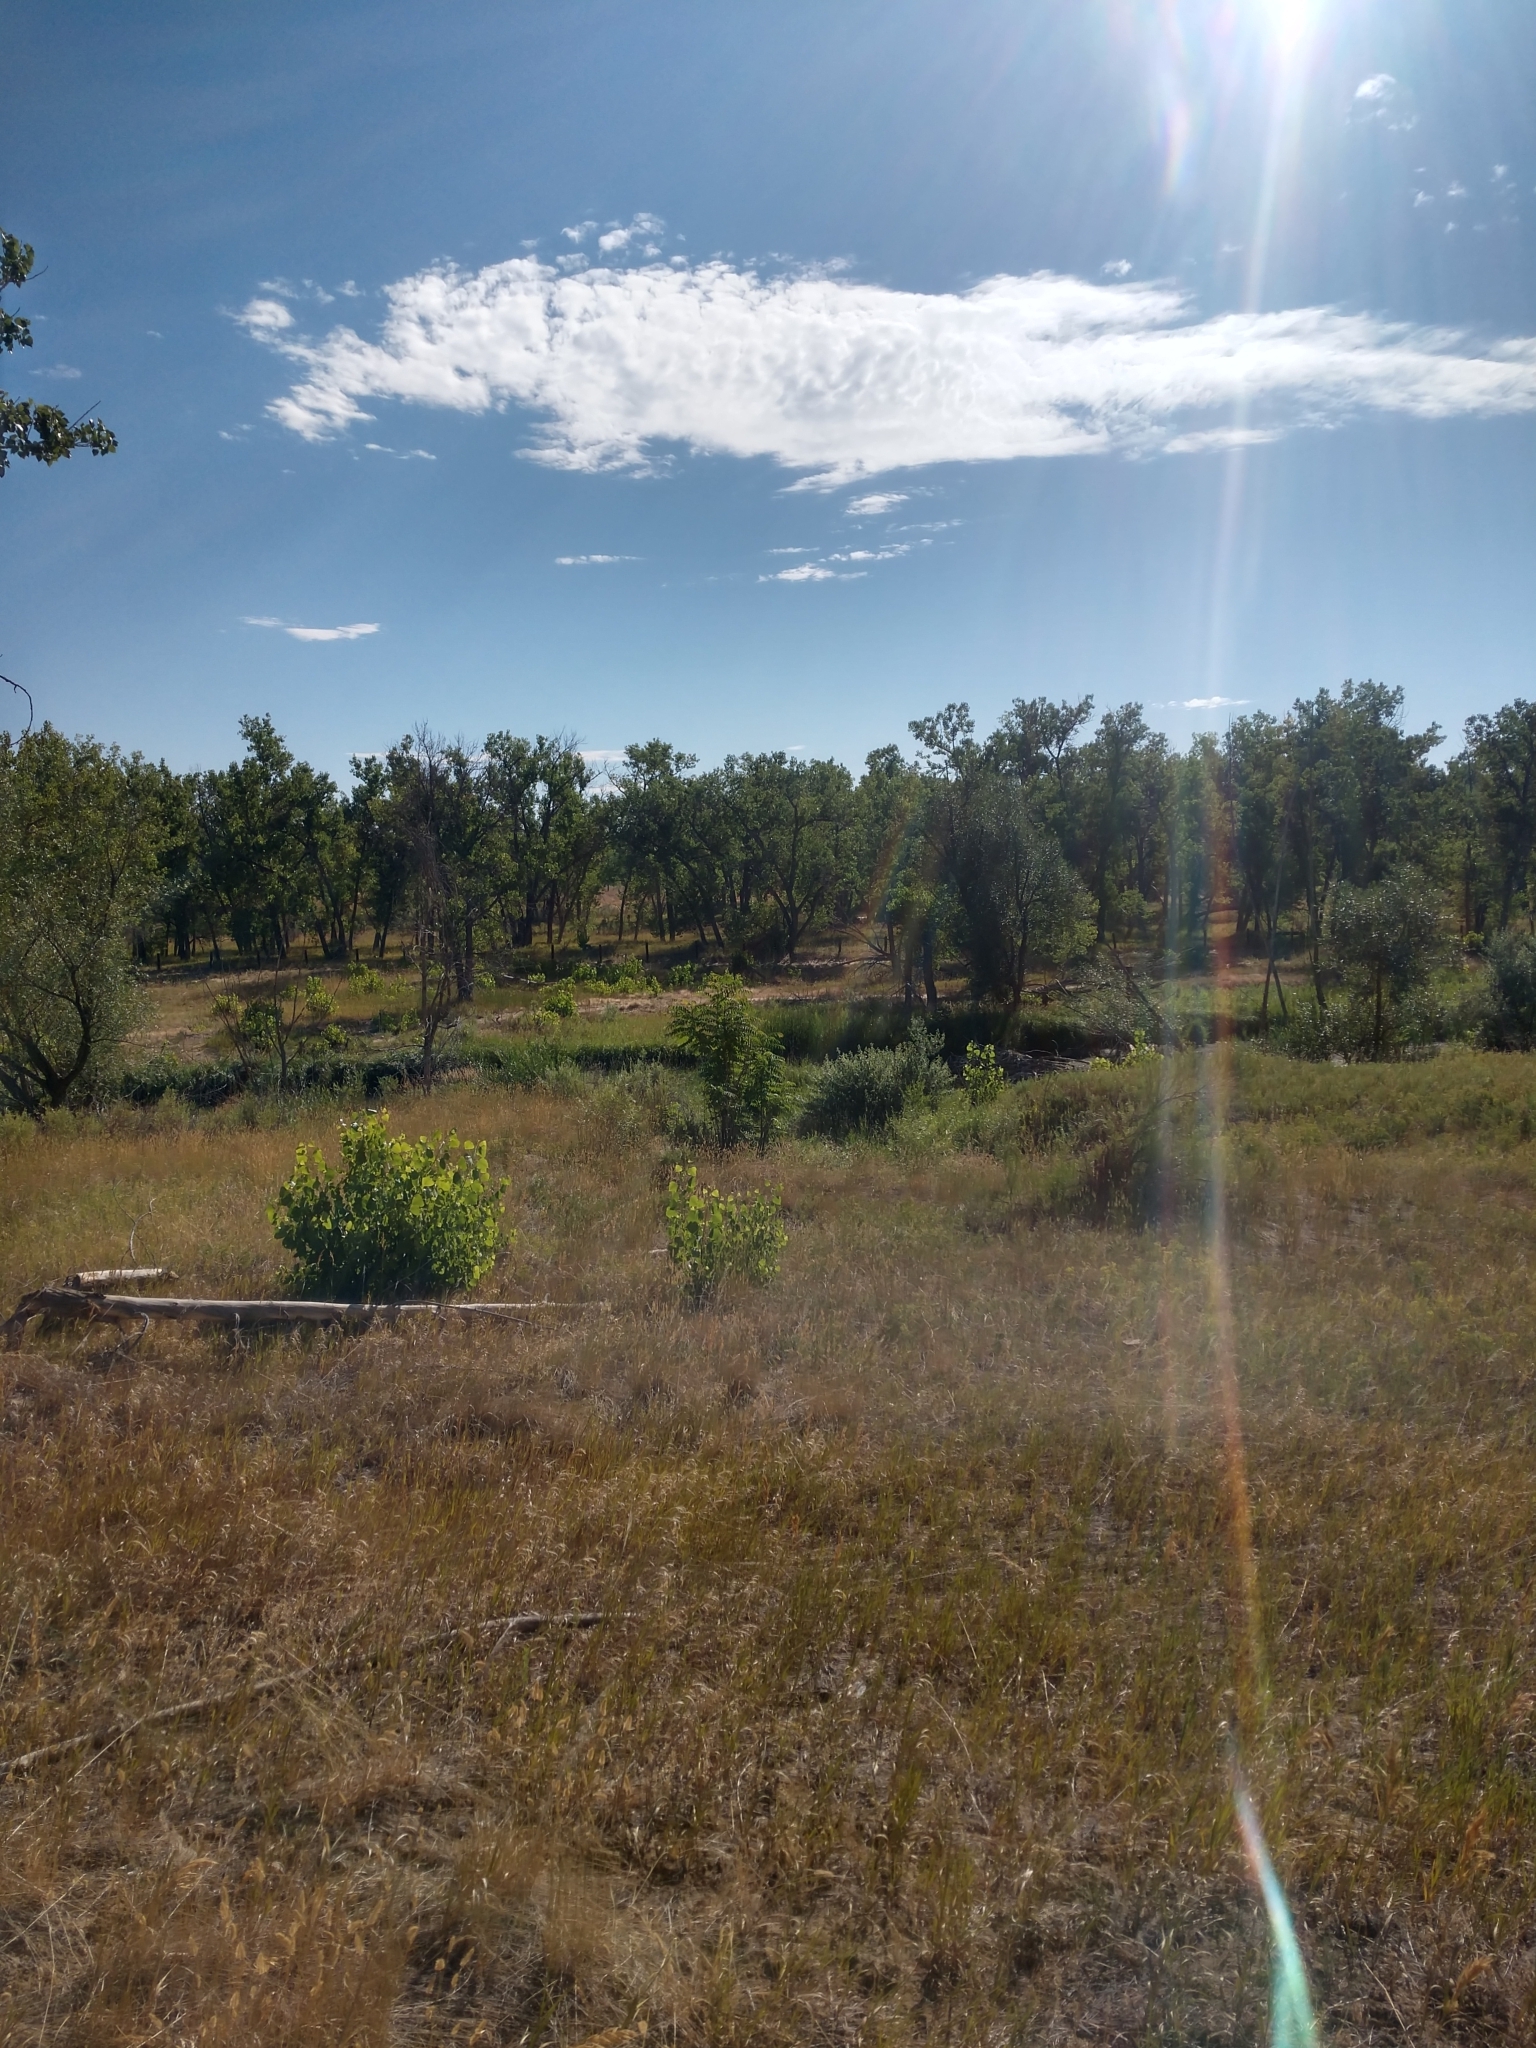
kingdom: Plantae
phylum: Tracheophyta
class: Magnoliopsida
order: Sapindales
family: Simaroubaceae
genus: Ailanthus
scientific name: Ailanthus altissima
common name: Tree-of-heaven
